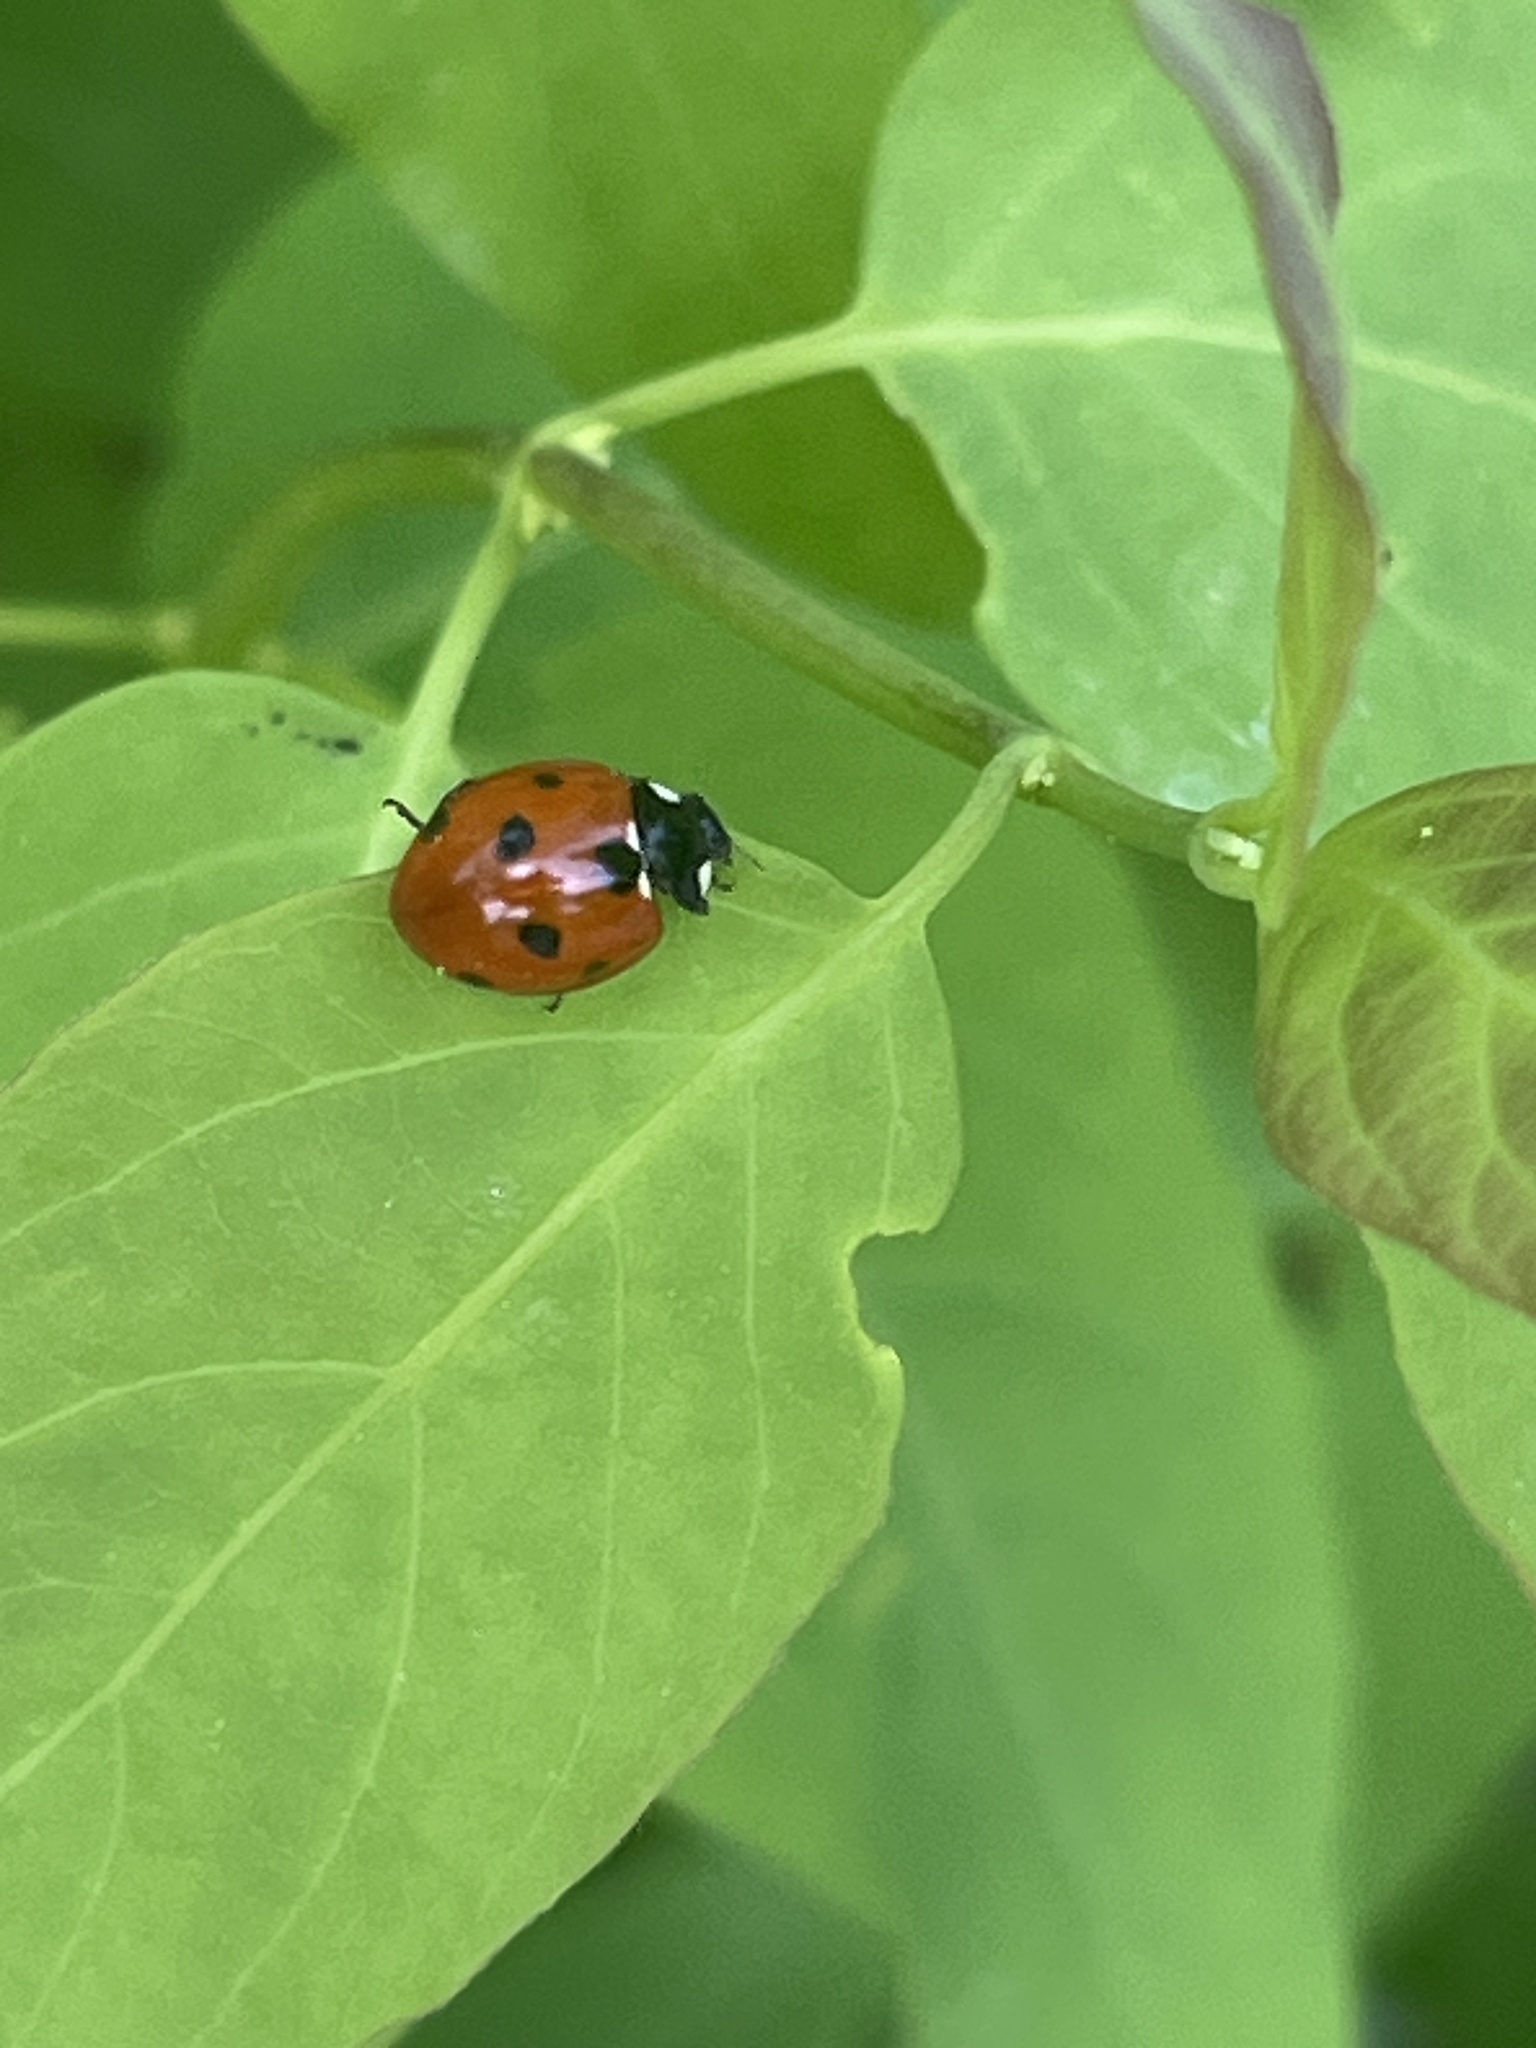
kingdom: Animalia
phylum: Arthropoda
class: Insecta
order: Coleoptera
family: Coccinellidae
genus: Coccinella
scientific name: Coccinella septempunctata
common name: Sevenspotted lady beetle
